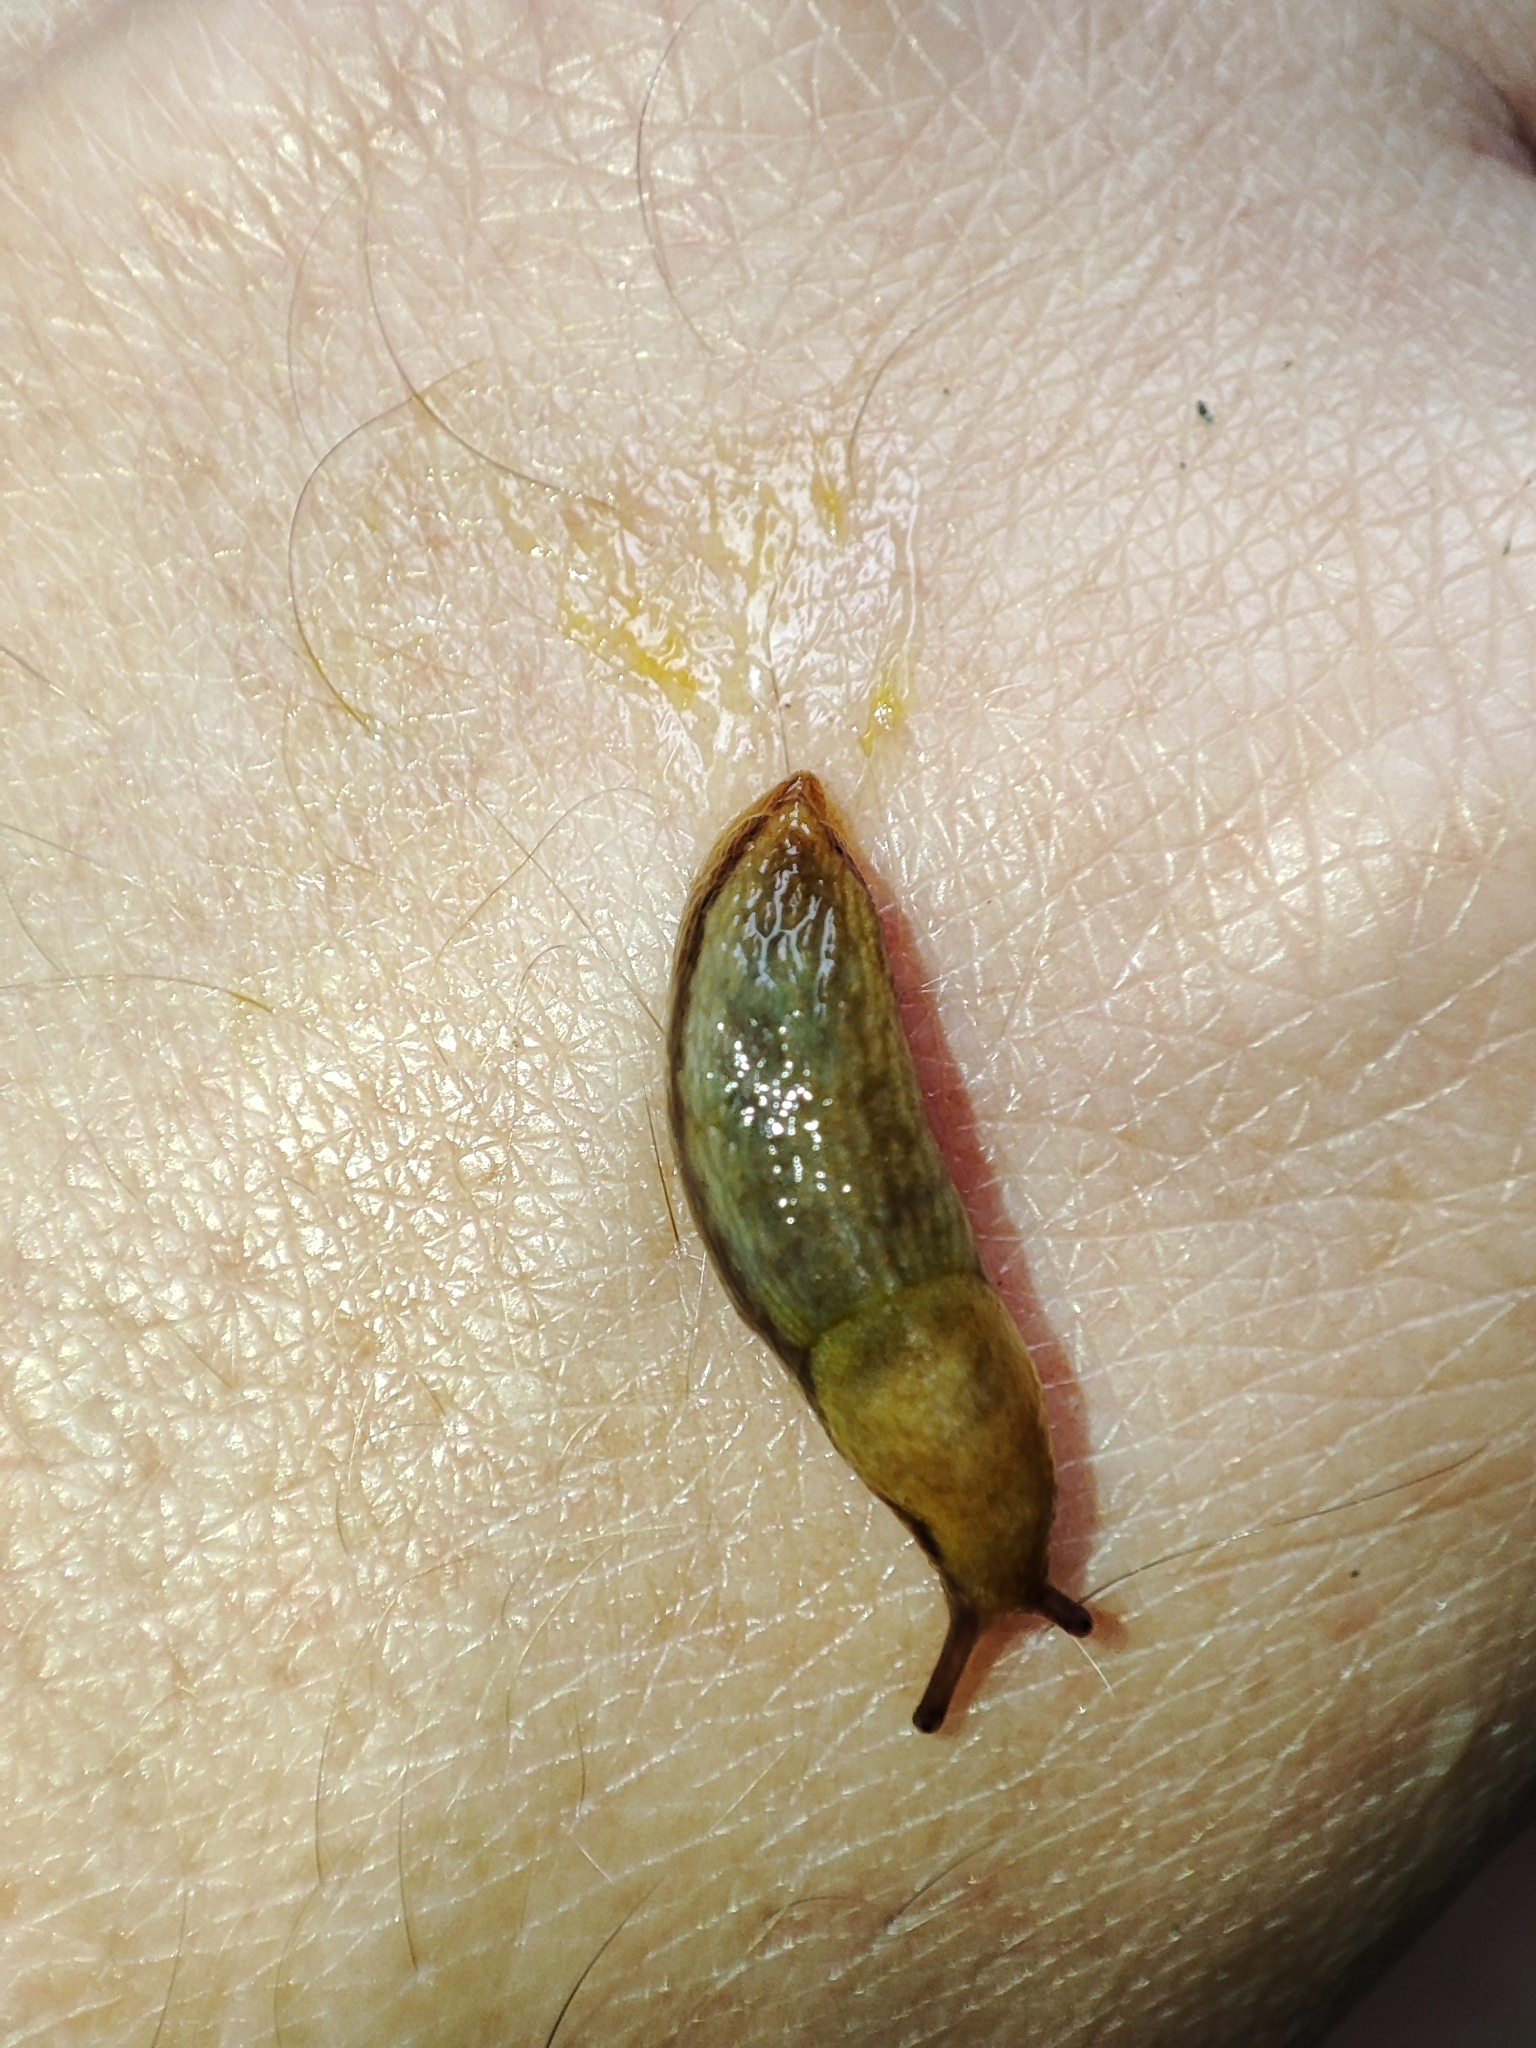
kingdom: Animalia
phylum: Mollusca
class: Gastropoda
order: Stylommatophora
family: Arionidae
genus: Arion
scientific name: Arion fuscus
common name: Northern dusky slug
